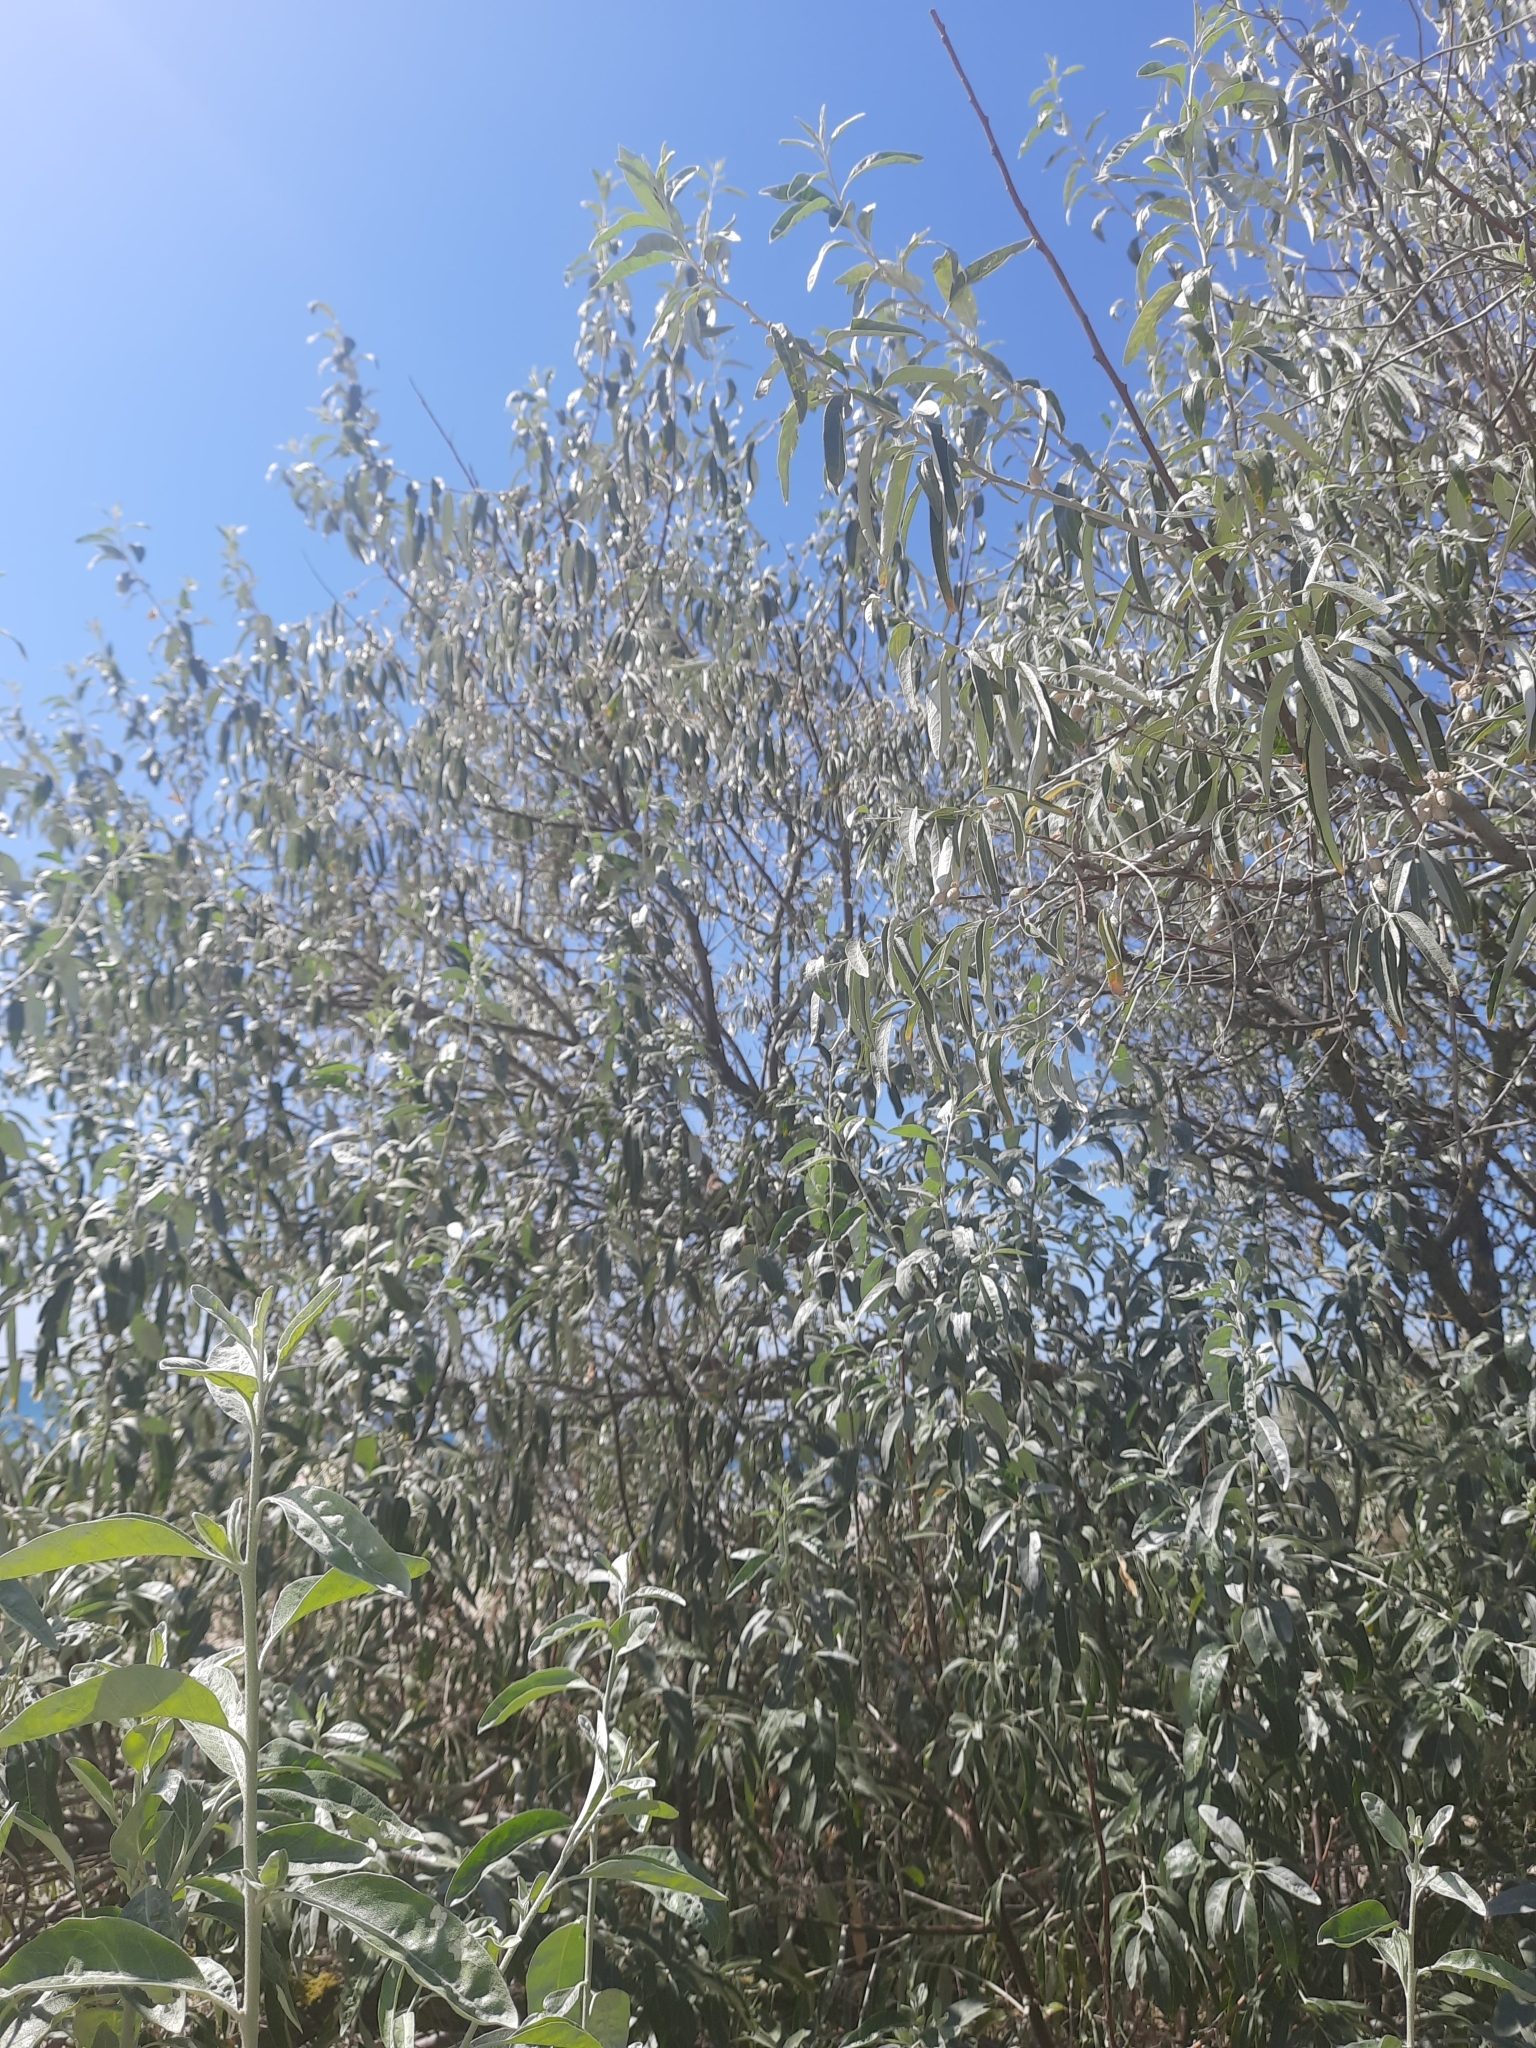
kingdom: Plantae
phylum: Tracheophyta
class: Magnoliopsida
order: Rosales
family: Elaeagnaceae
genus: Elaeagnus
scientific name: Elaeagnus angustifolia
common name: Russian olive
